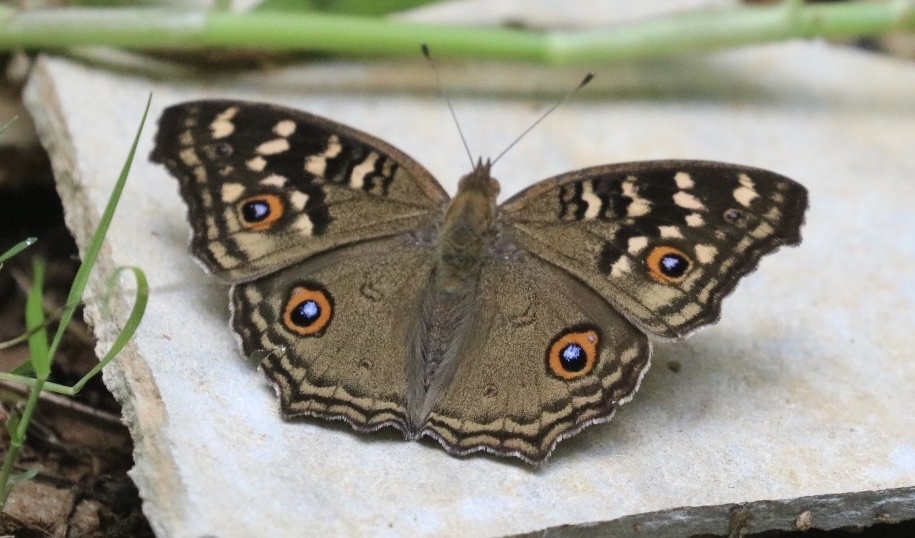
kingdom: Animalia
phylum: Arthropoda
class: Insecta
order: Lepidoptera
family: Nymphalidae
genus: Junonia
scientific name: Junonia lemonias
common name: Lemon pansy
